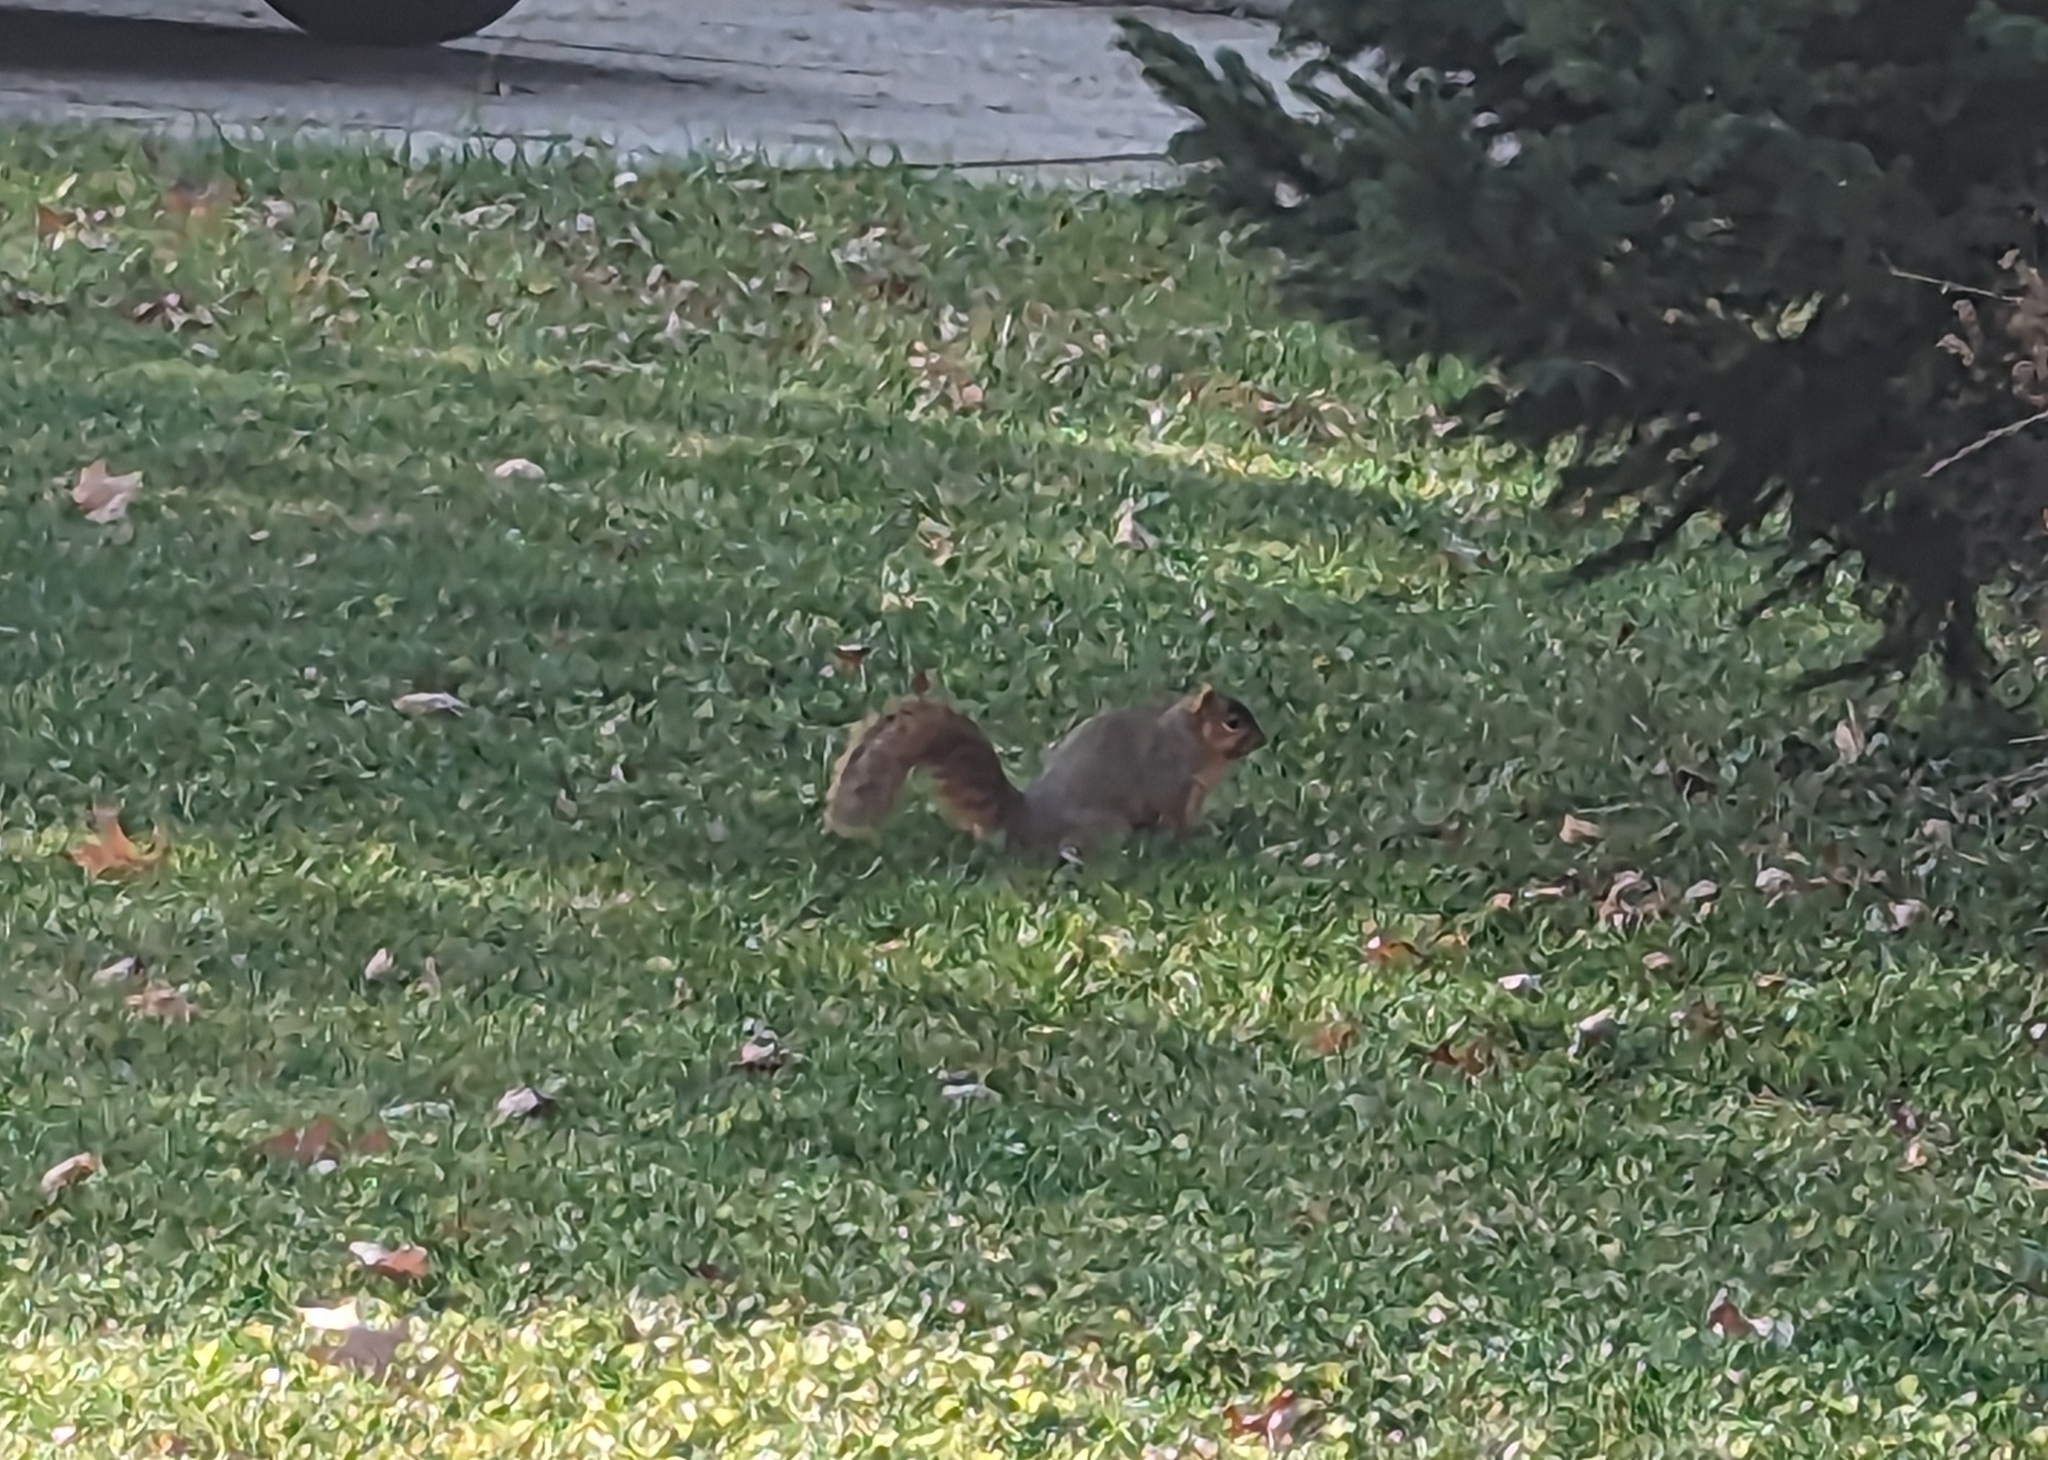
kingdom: Animalia
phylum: Chordata
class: Mammalia
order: Rodentia
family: Sciuridae
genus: Sciurus
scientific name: Sciurus niger
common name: Fox squirrel
